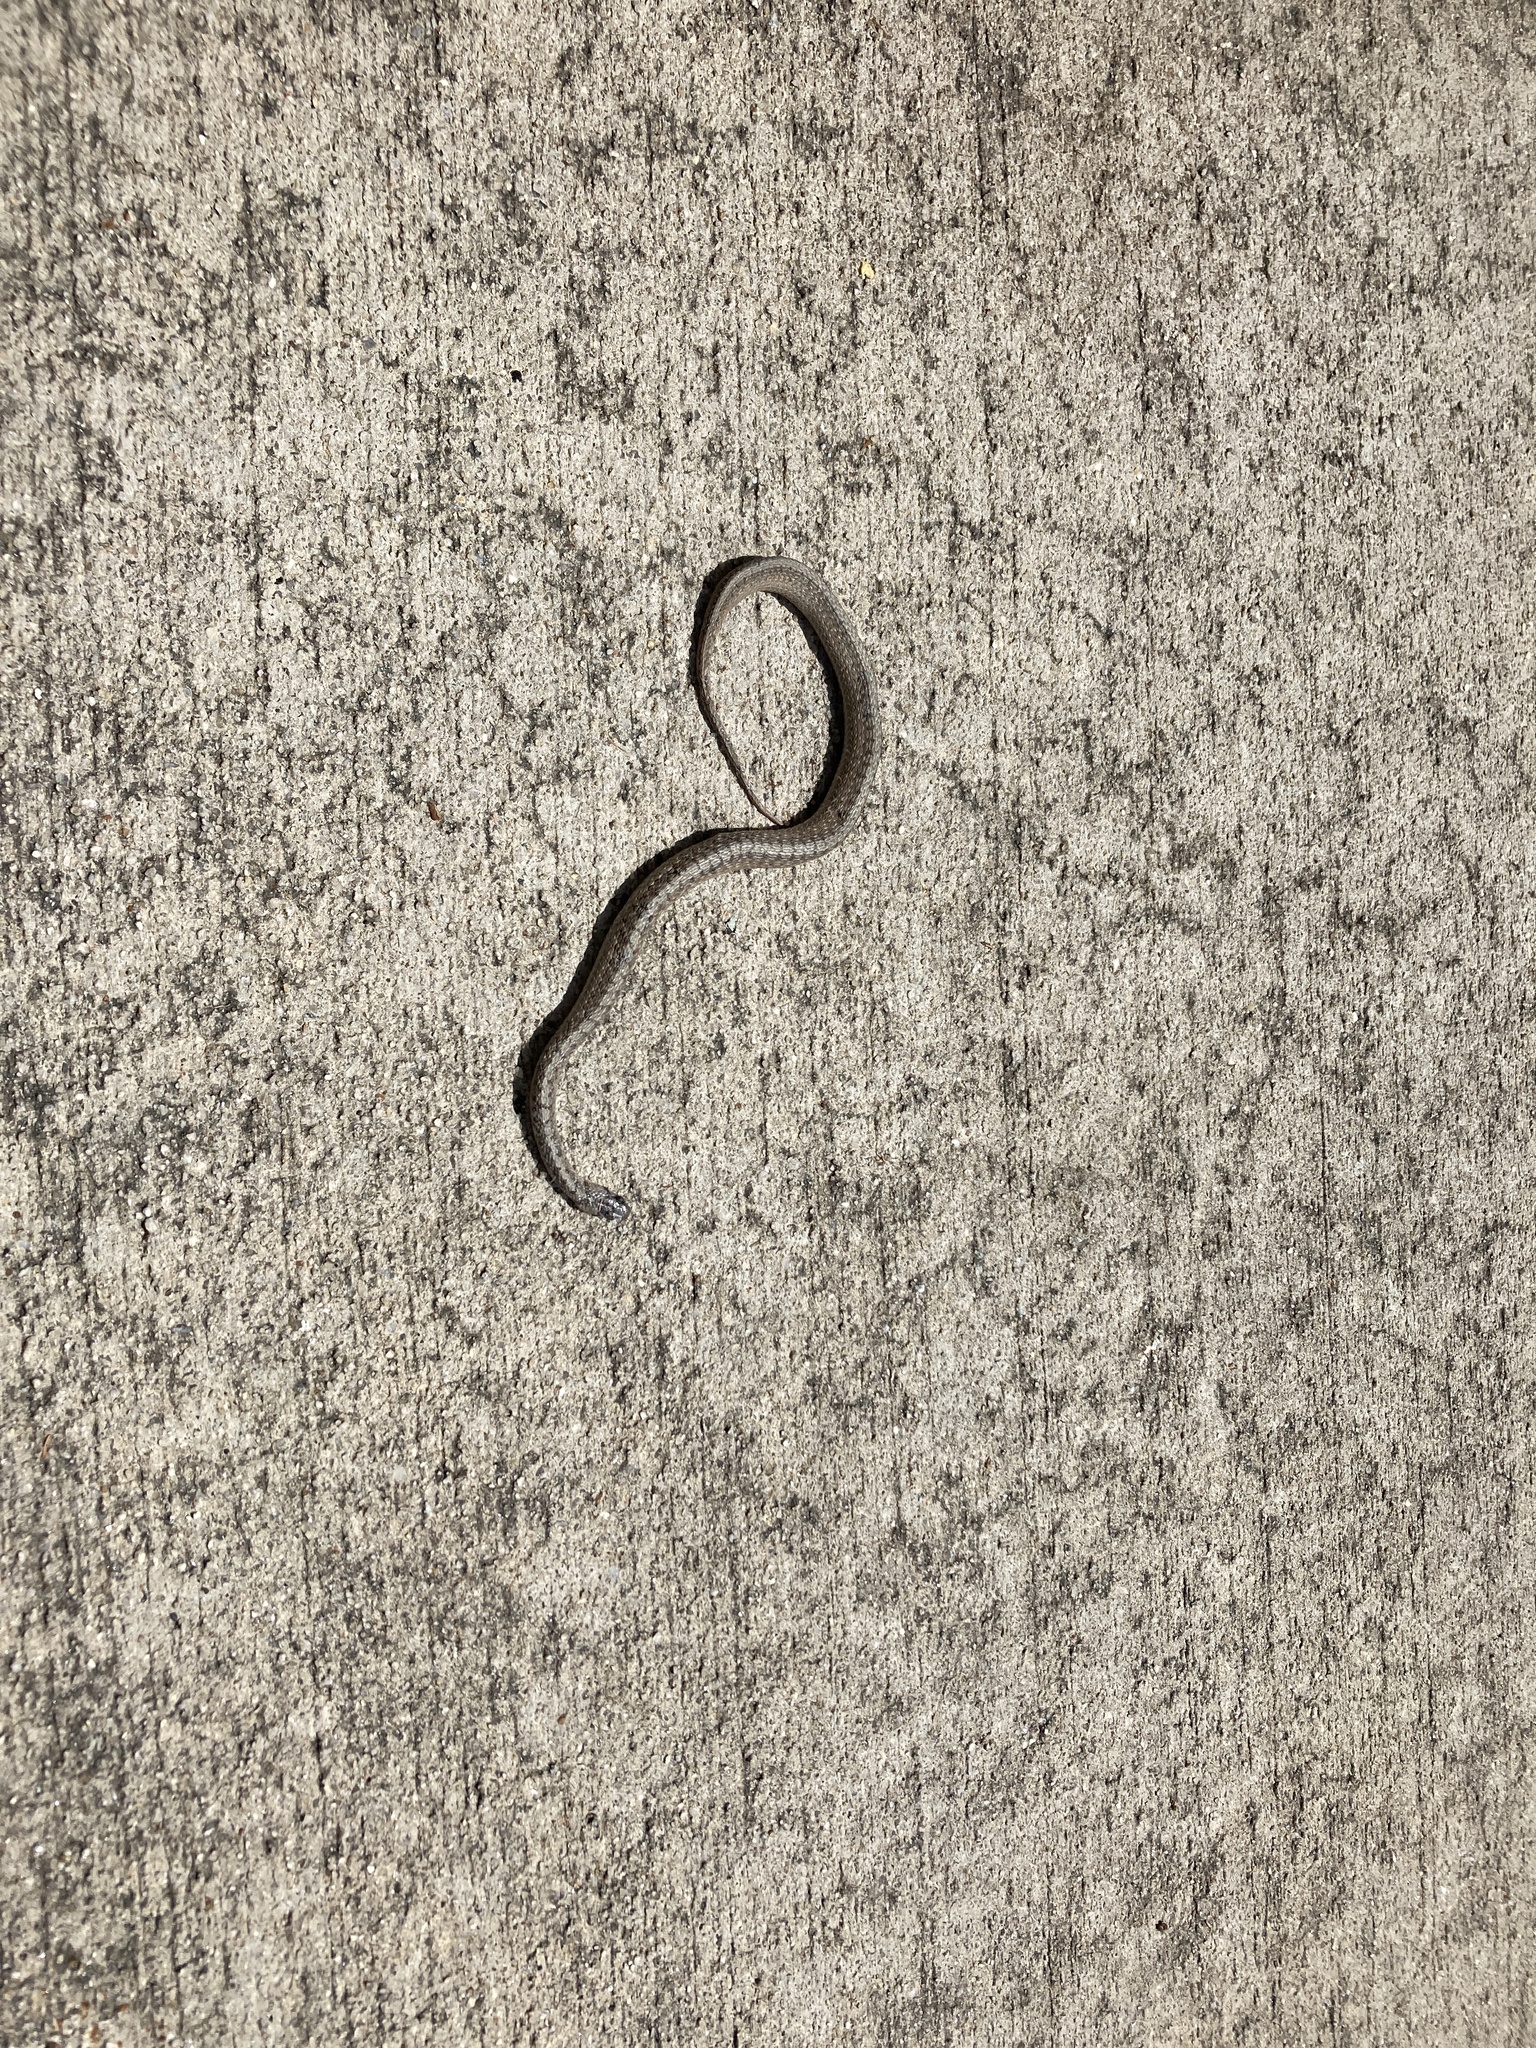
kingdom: Animalia
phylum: Chordata
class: Squamata
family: Colubridae
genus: Storeria
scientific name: Storeria dekayi
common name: (dekay’s) brown snake
